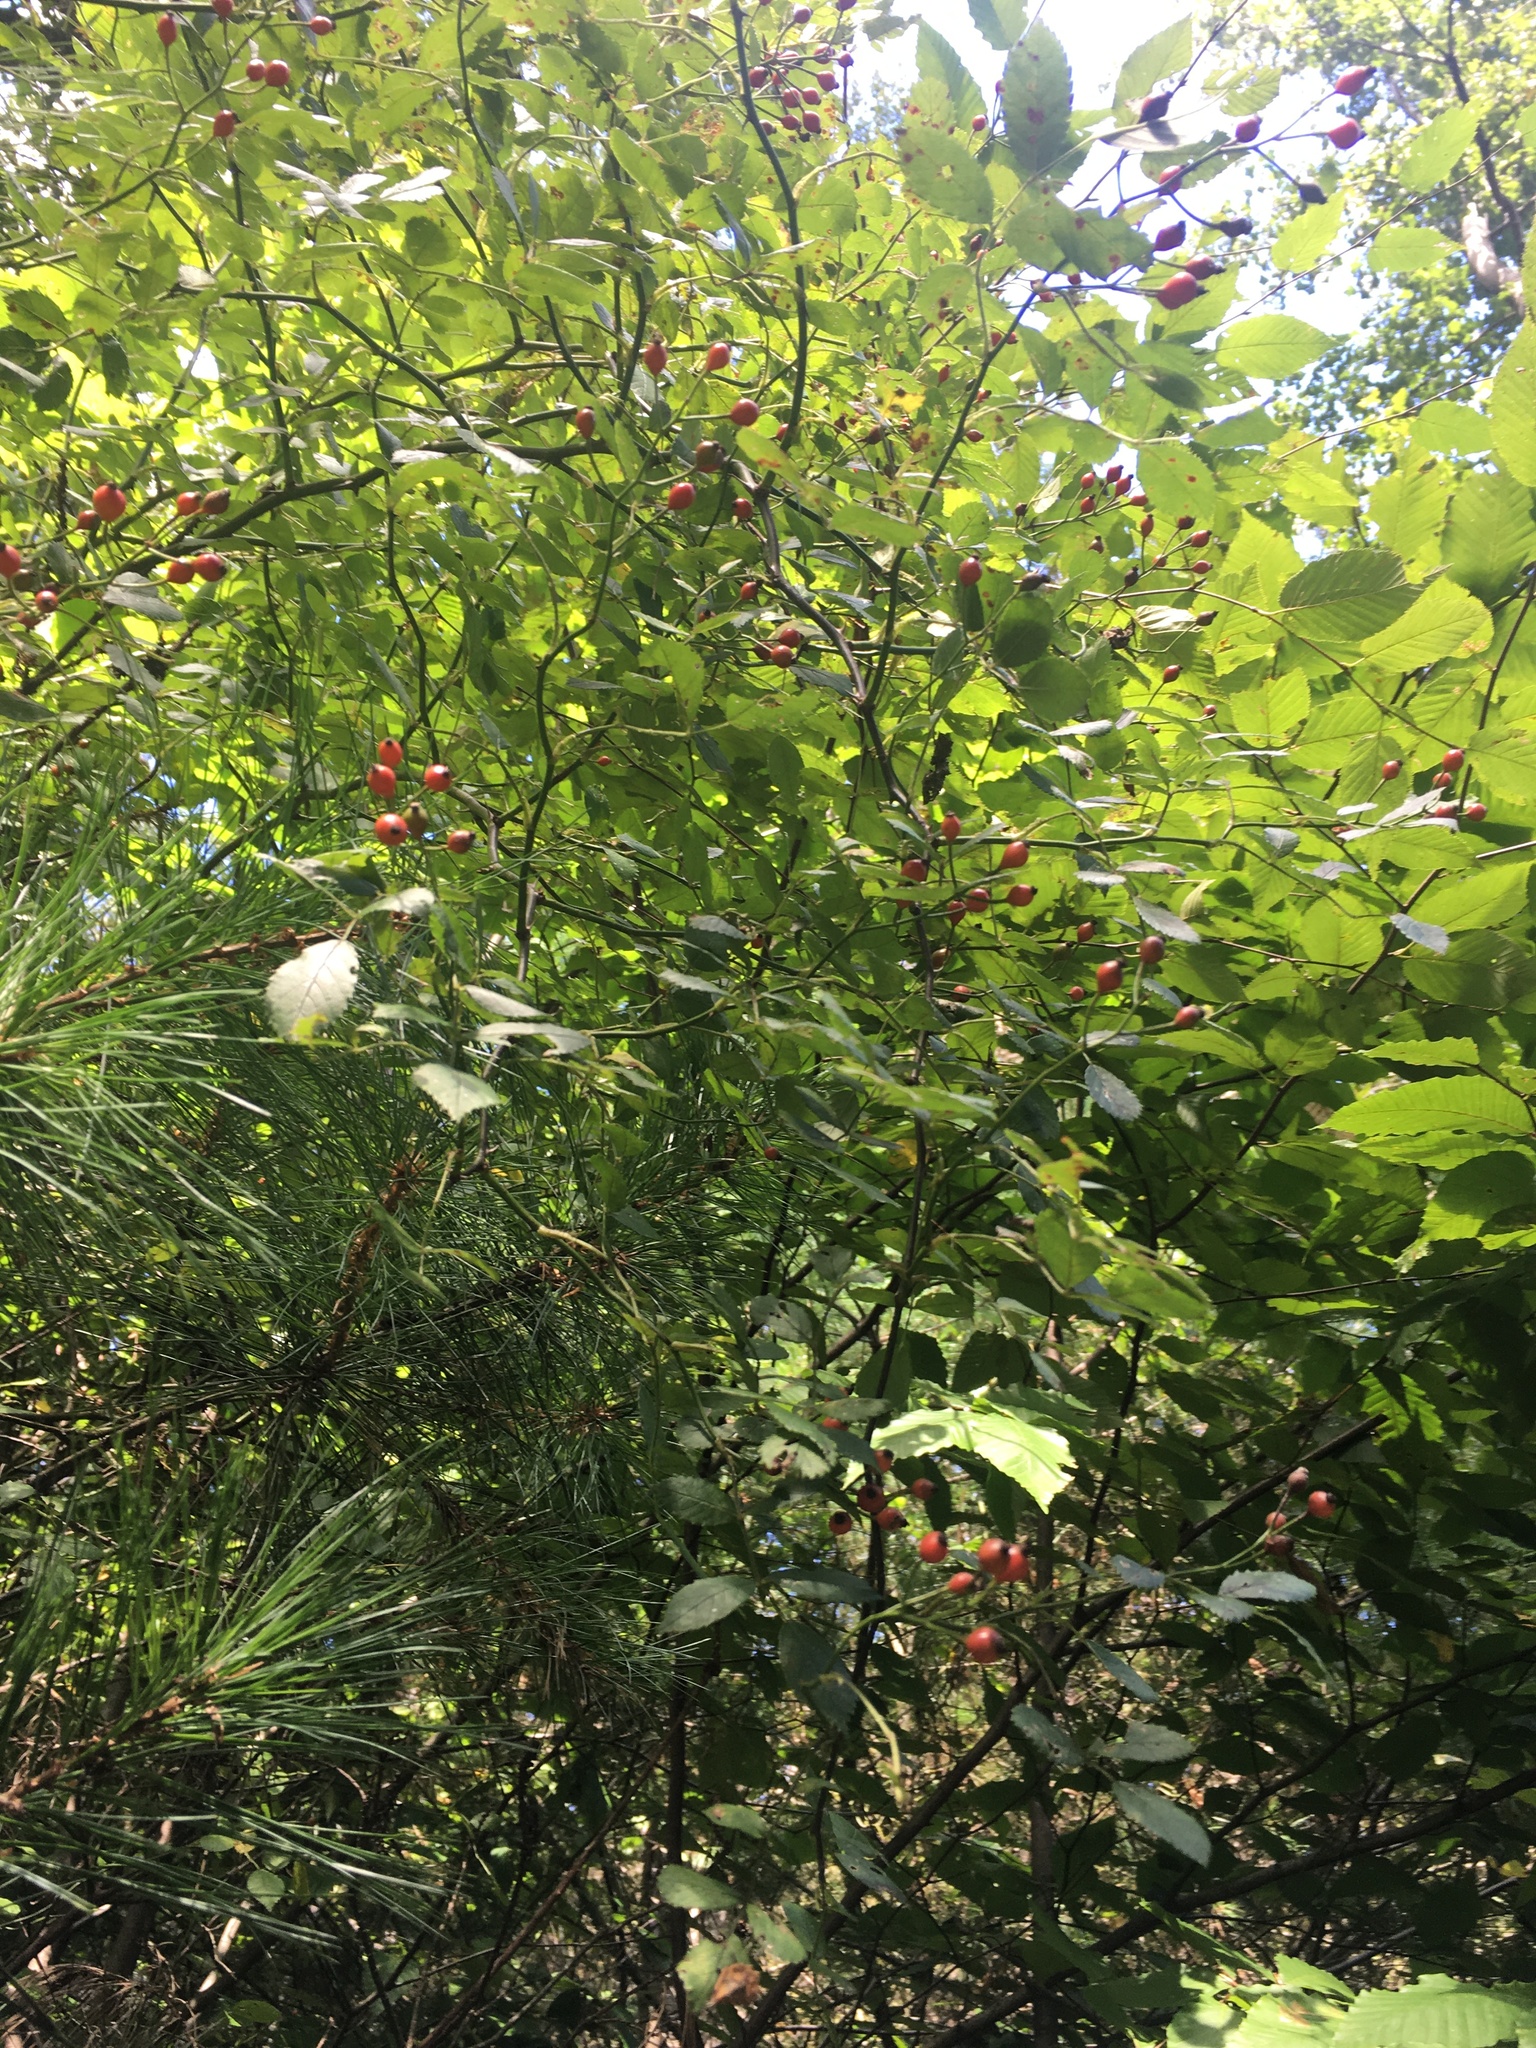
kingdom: Plantae
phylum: Tracheophyta
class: Magnoliopsida
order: Rosales
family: Rosaceae
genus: Rosa
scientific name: Rosa multiflora
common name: Multiflora rose
